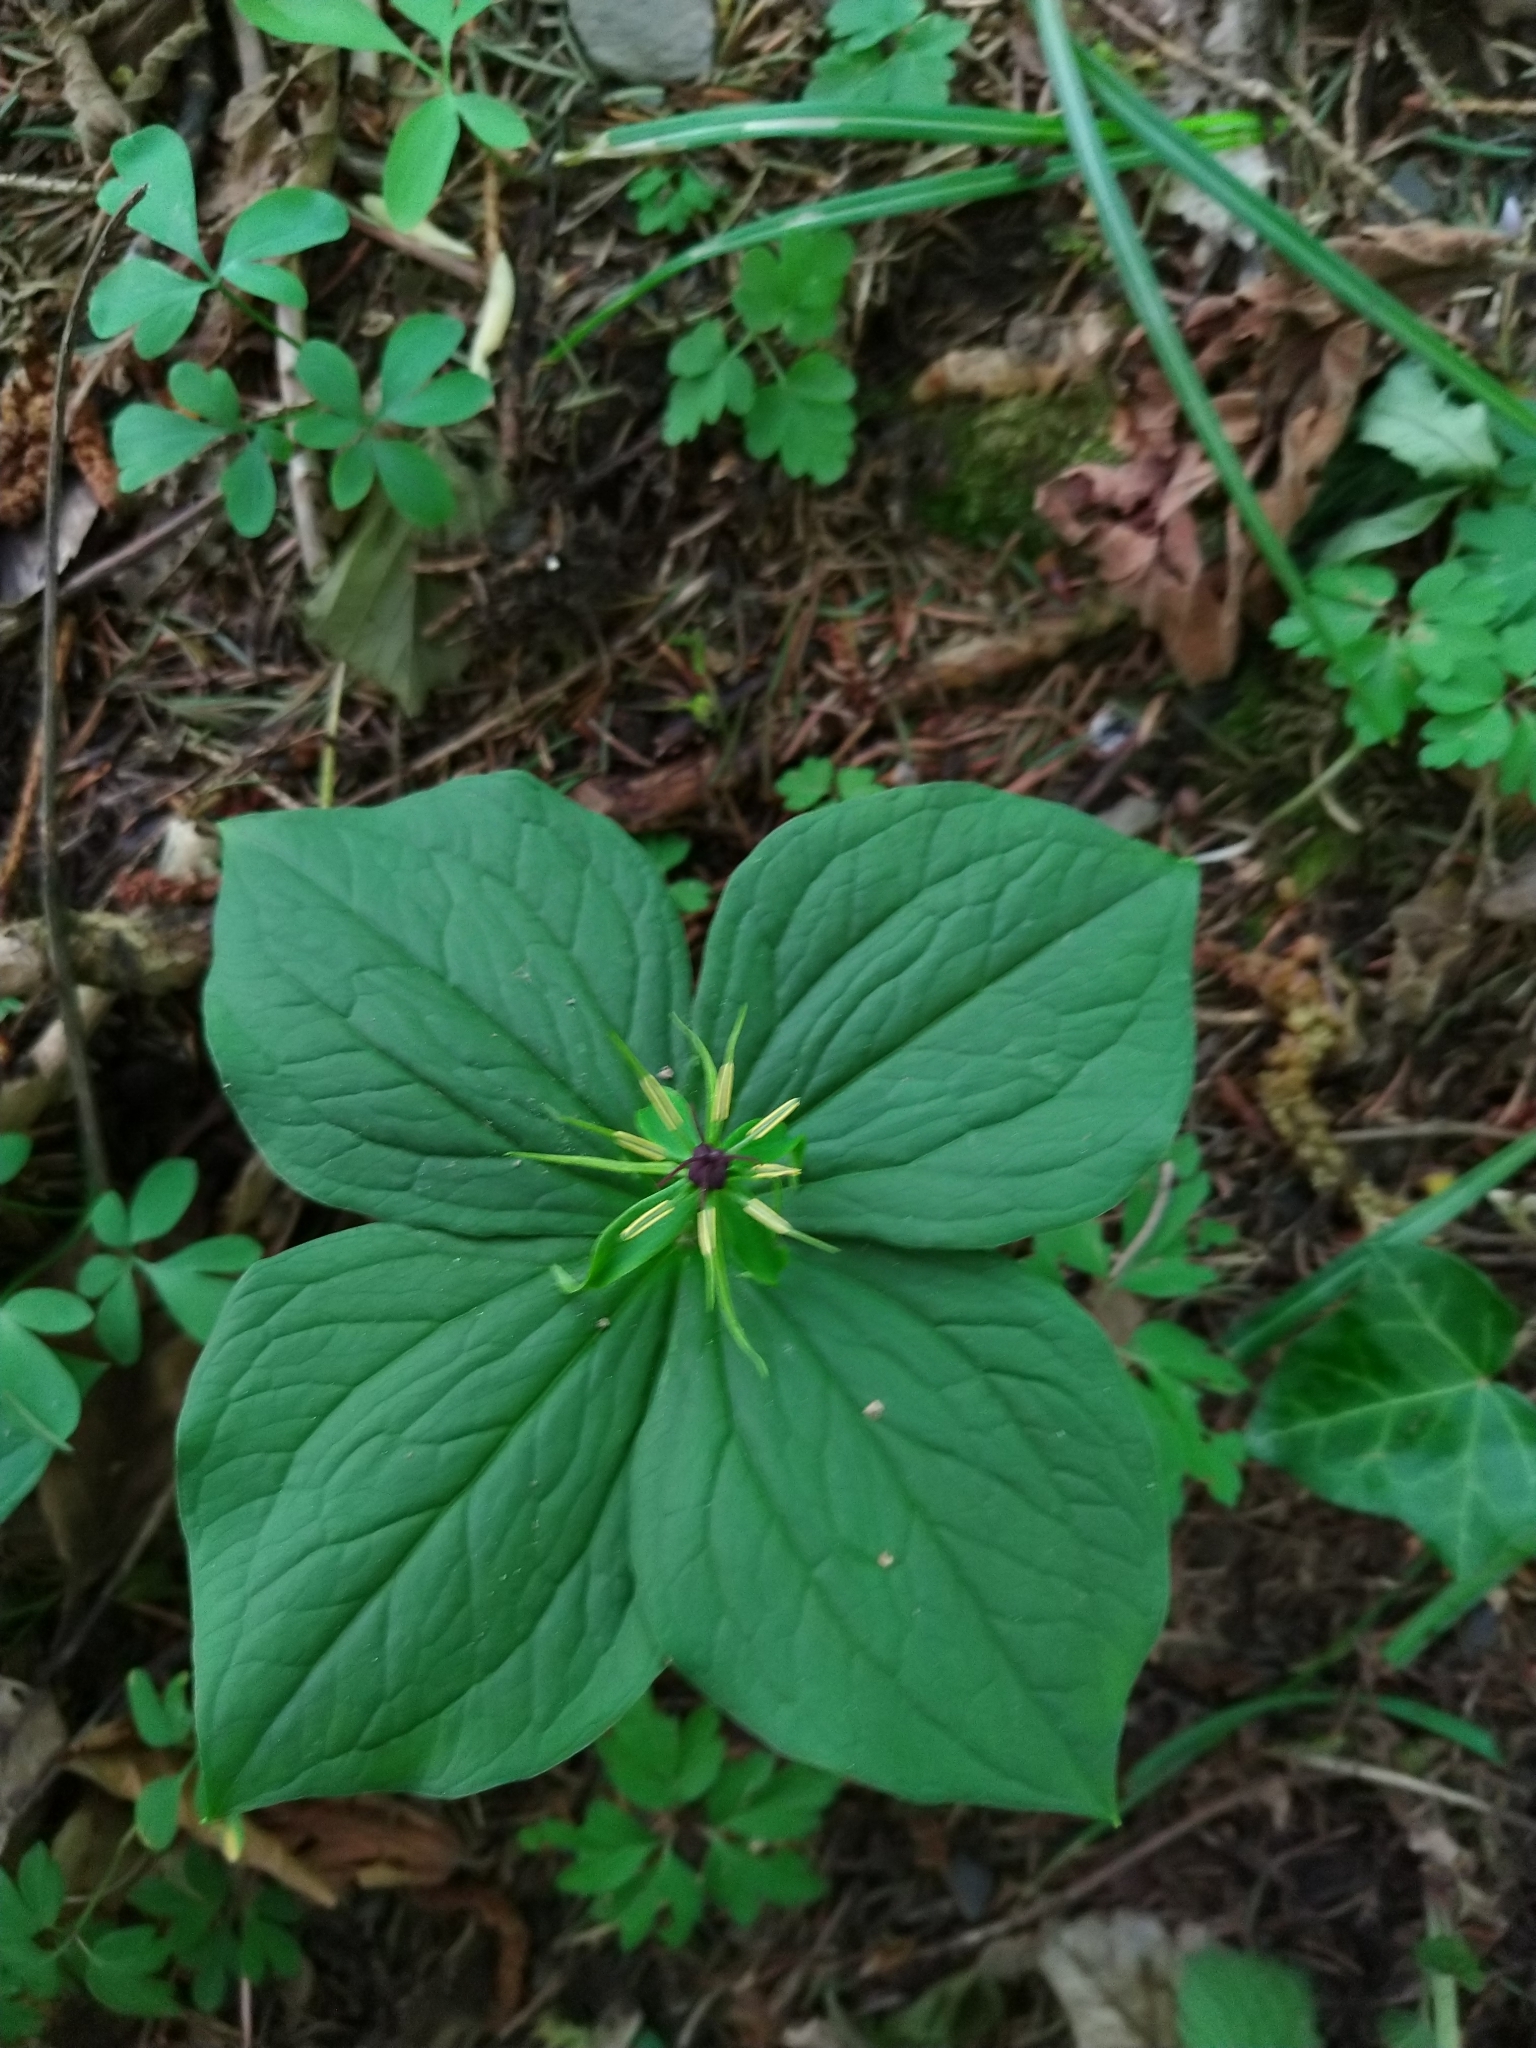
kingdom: Plantae
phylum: Tracheophyta
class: Liliopsida
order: Liliales
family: Melanthiaceae
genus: Paris
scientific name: Paris quadrifolia
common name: Herb-paris
